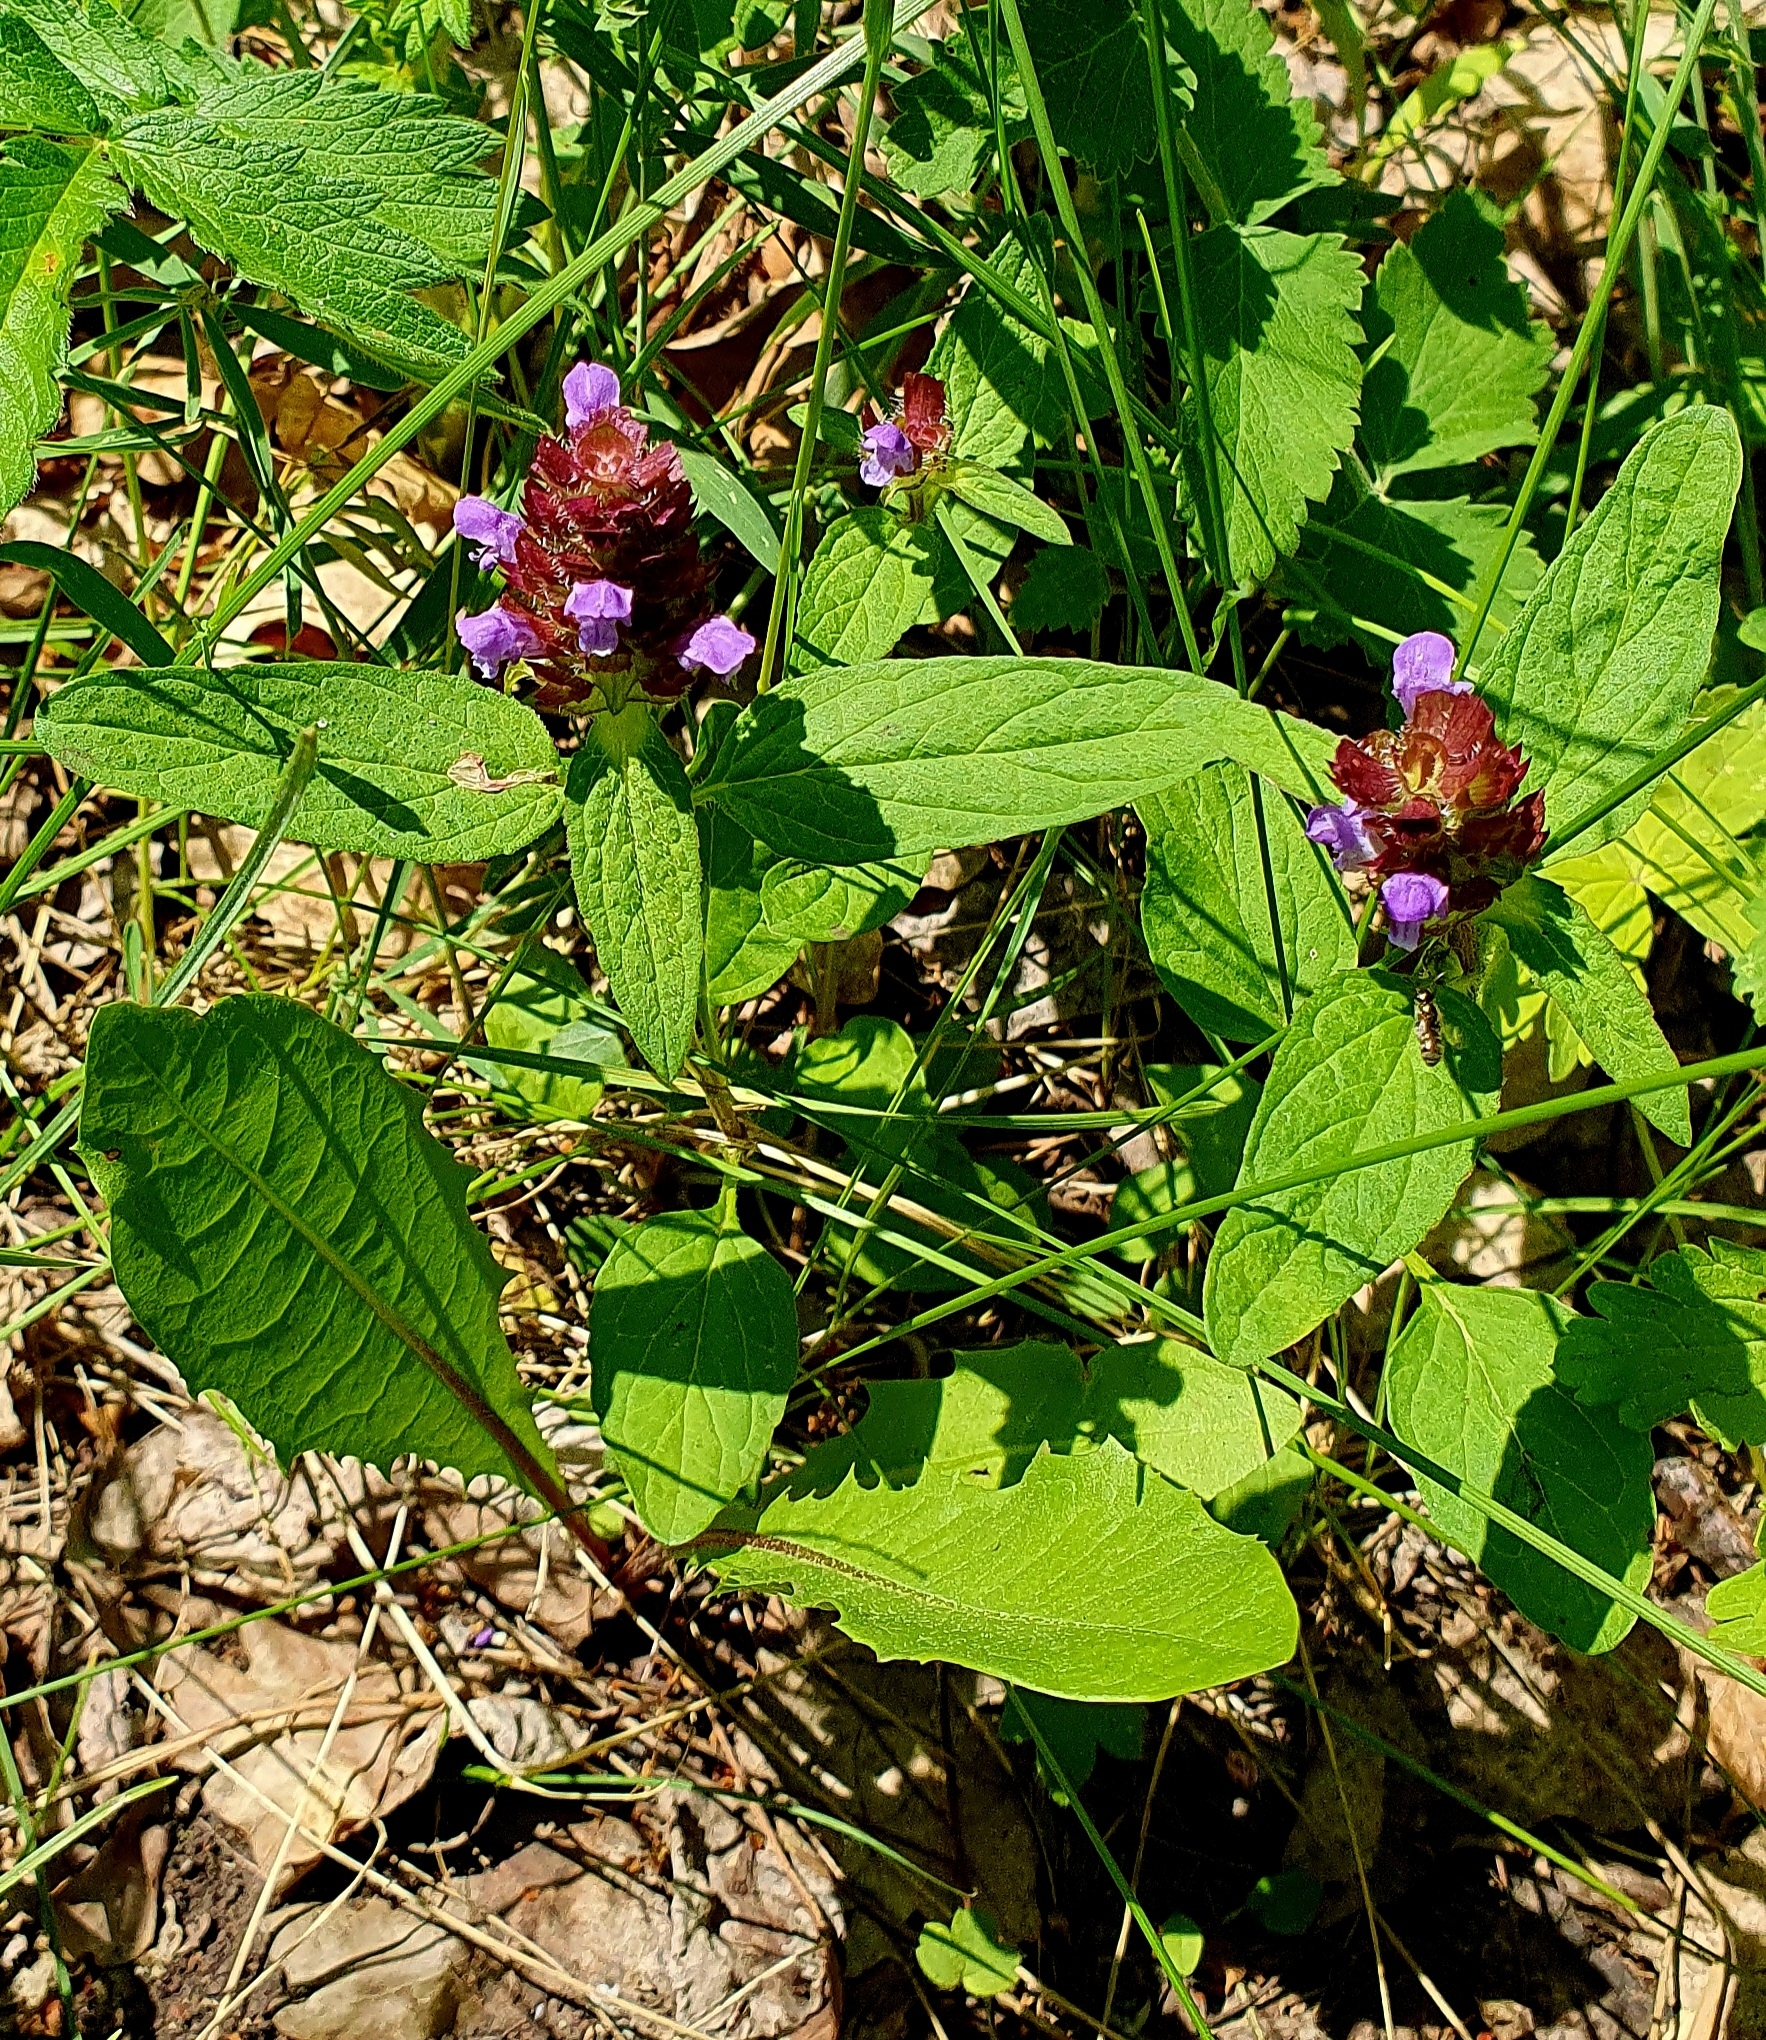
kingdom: Plantae
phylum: Tracheophyta
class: Magnoliopsida
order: Lamiales
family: Lamiaceae
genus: Prunella
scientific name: Prunella vulgaris
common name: Heal-all
